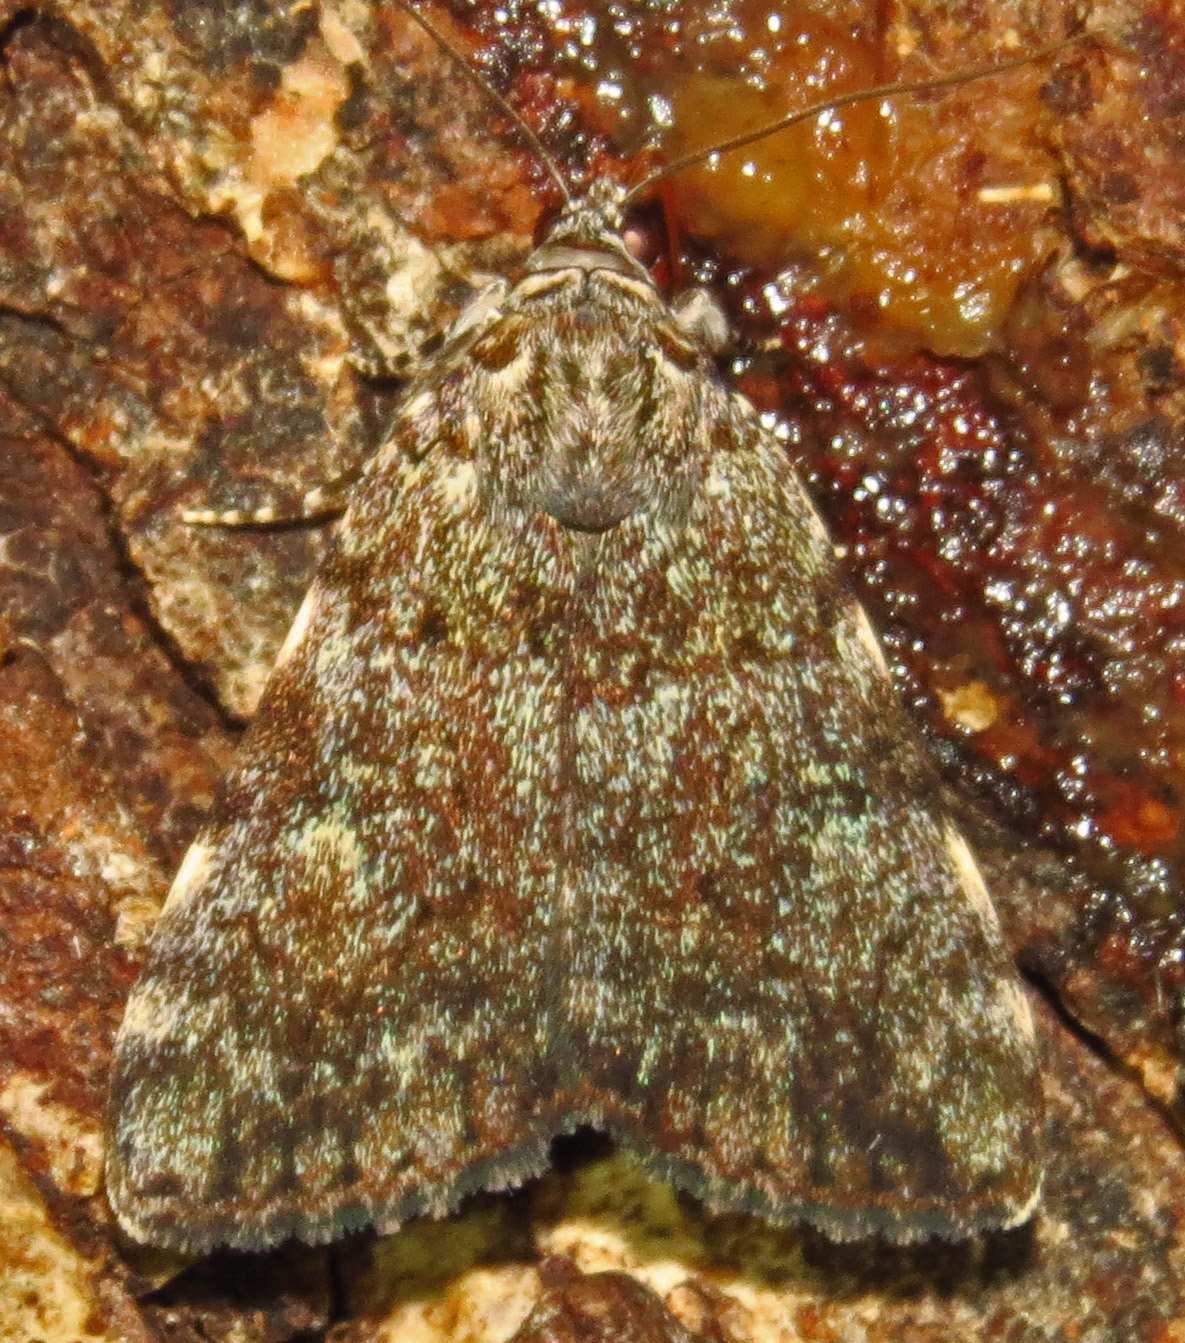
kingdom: Animalia
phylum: Arthropoda
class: Insecta
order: Lepidoptera
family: Erebidae
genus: Catocala
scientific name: Catocala lineella
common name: Little lined underwing
